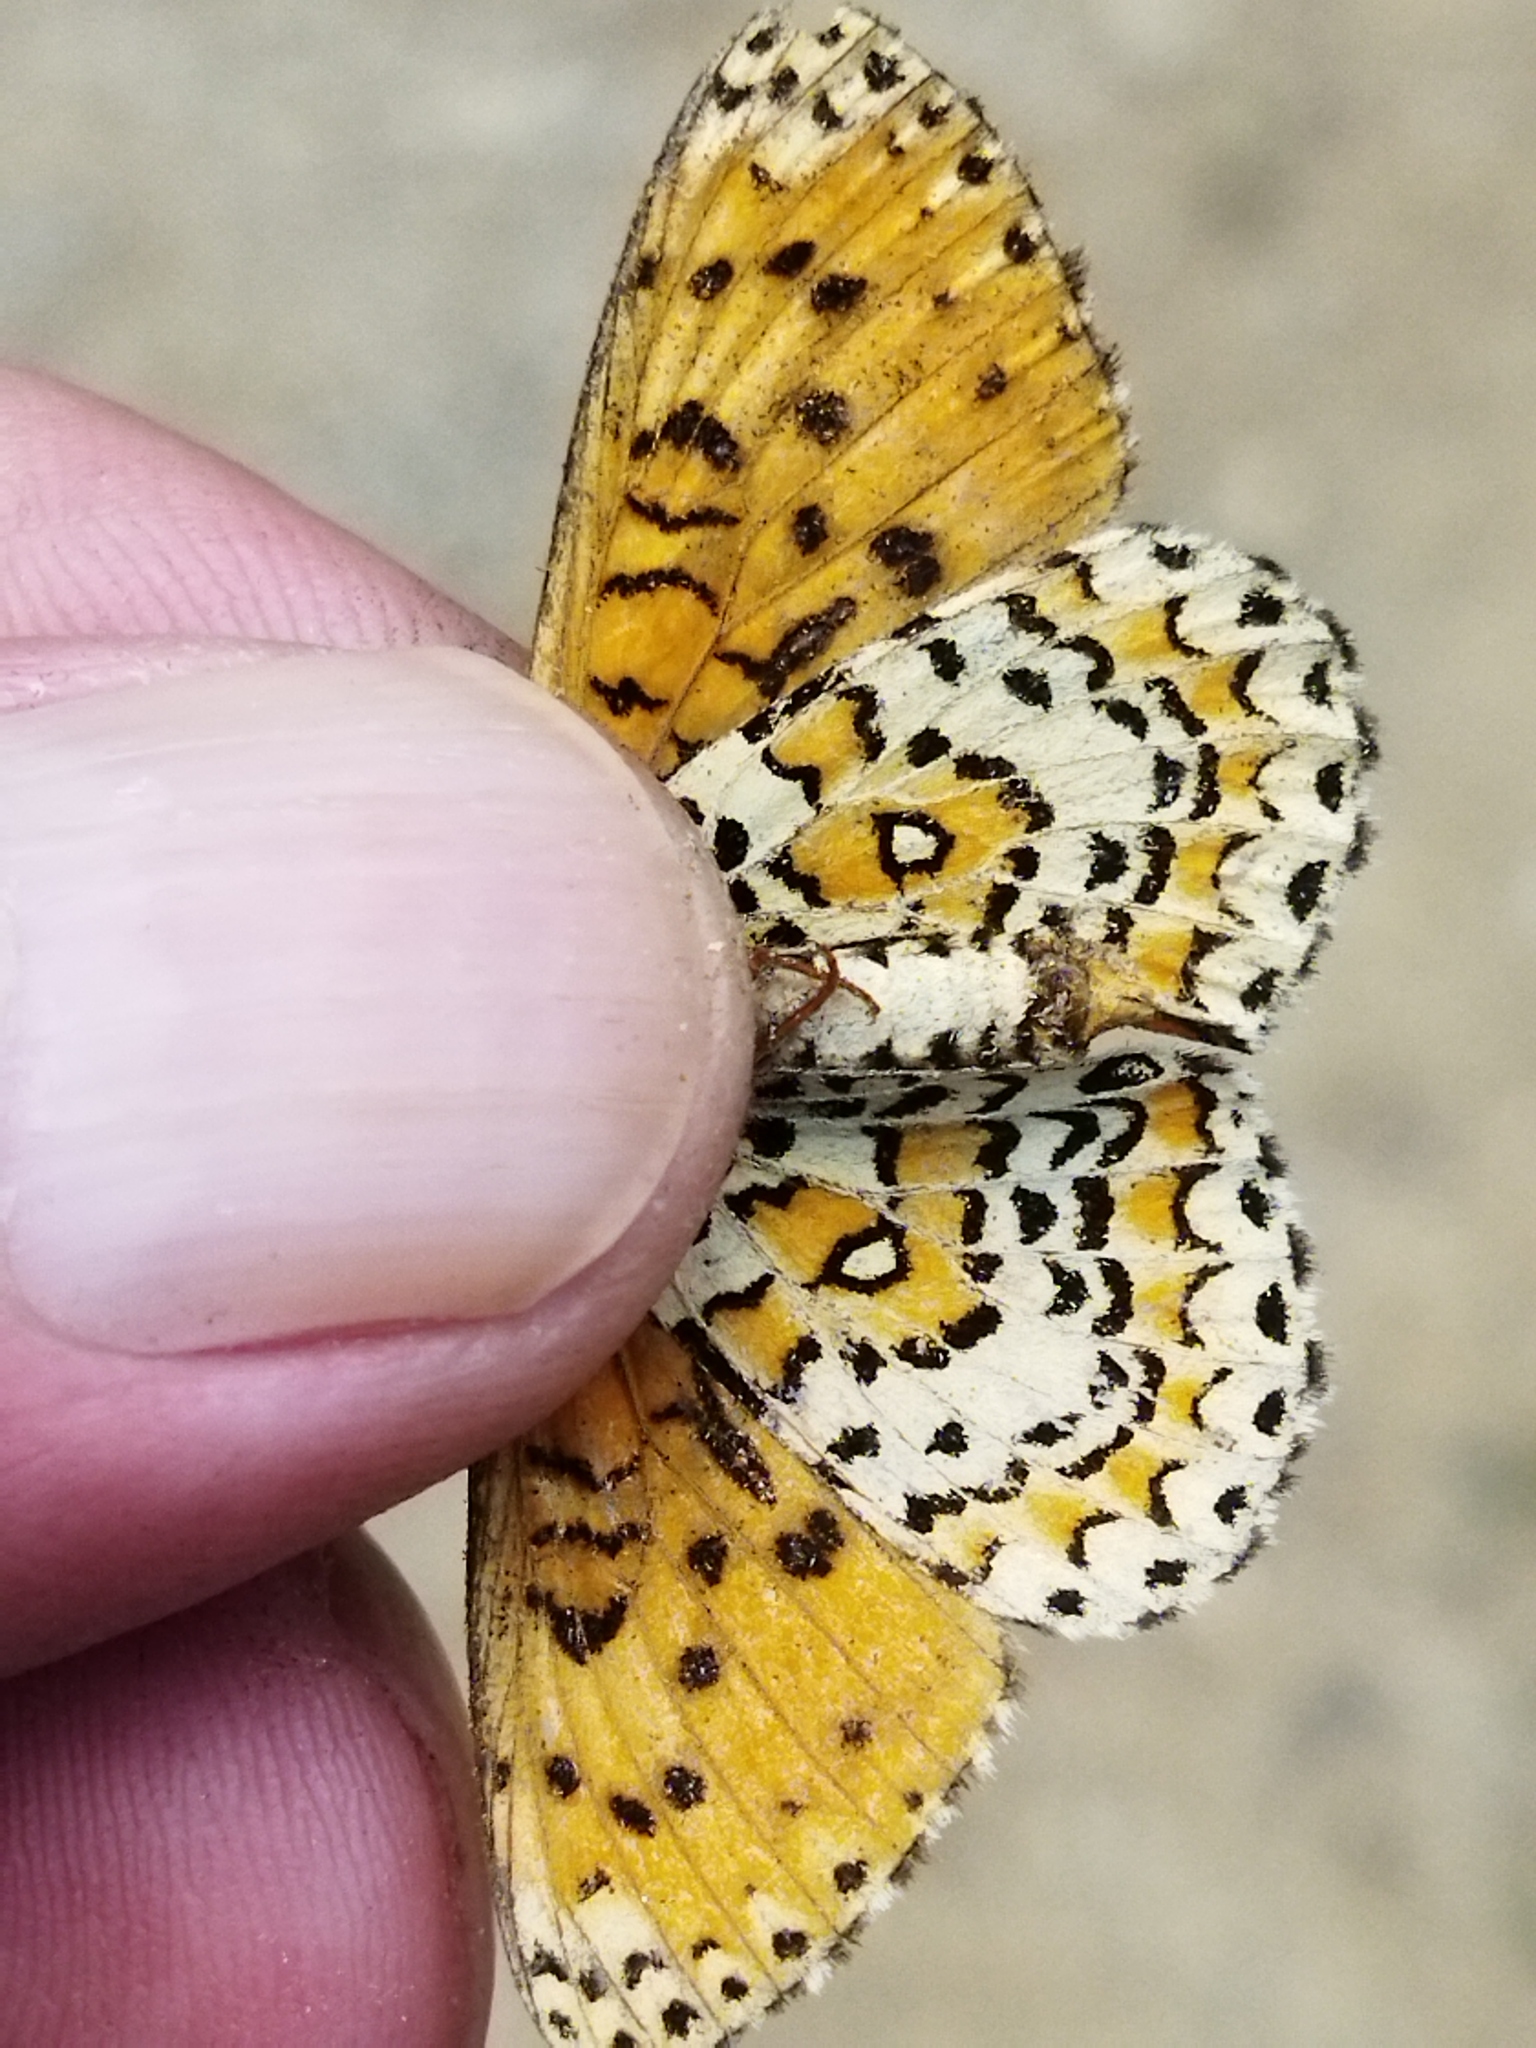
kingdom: Animalia
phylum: Arthropoda
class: Insecta
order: Lepidoptera
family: Nymphalidae
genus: Melitaea
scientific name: Melitaea trivia
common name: Lesser spotted fritillary
